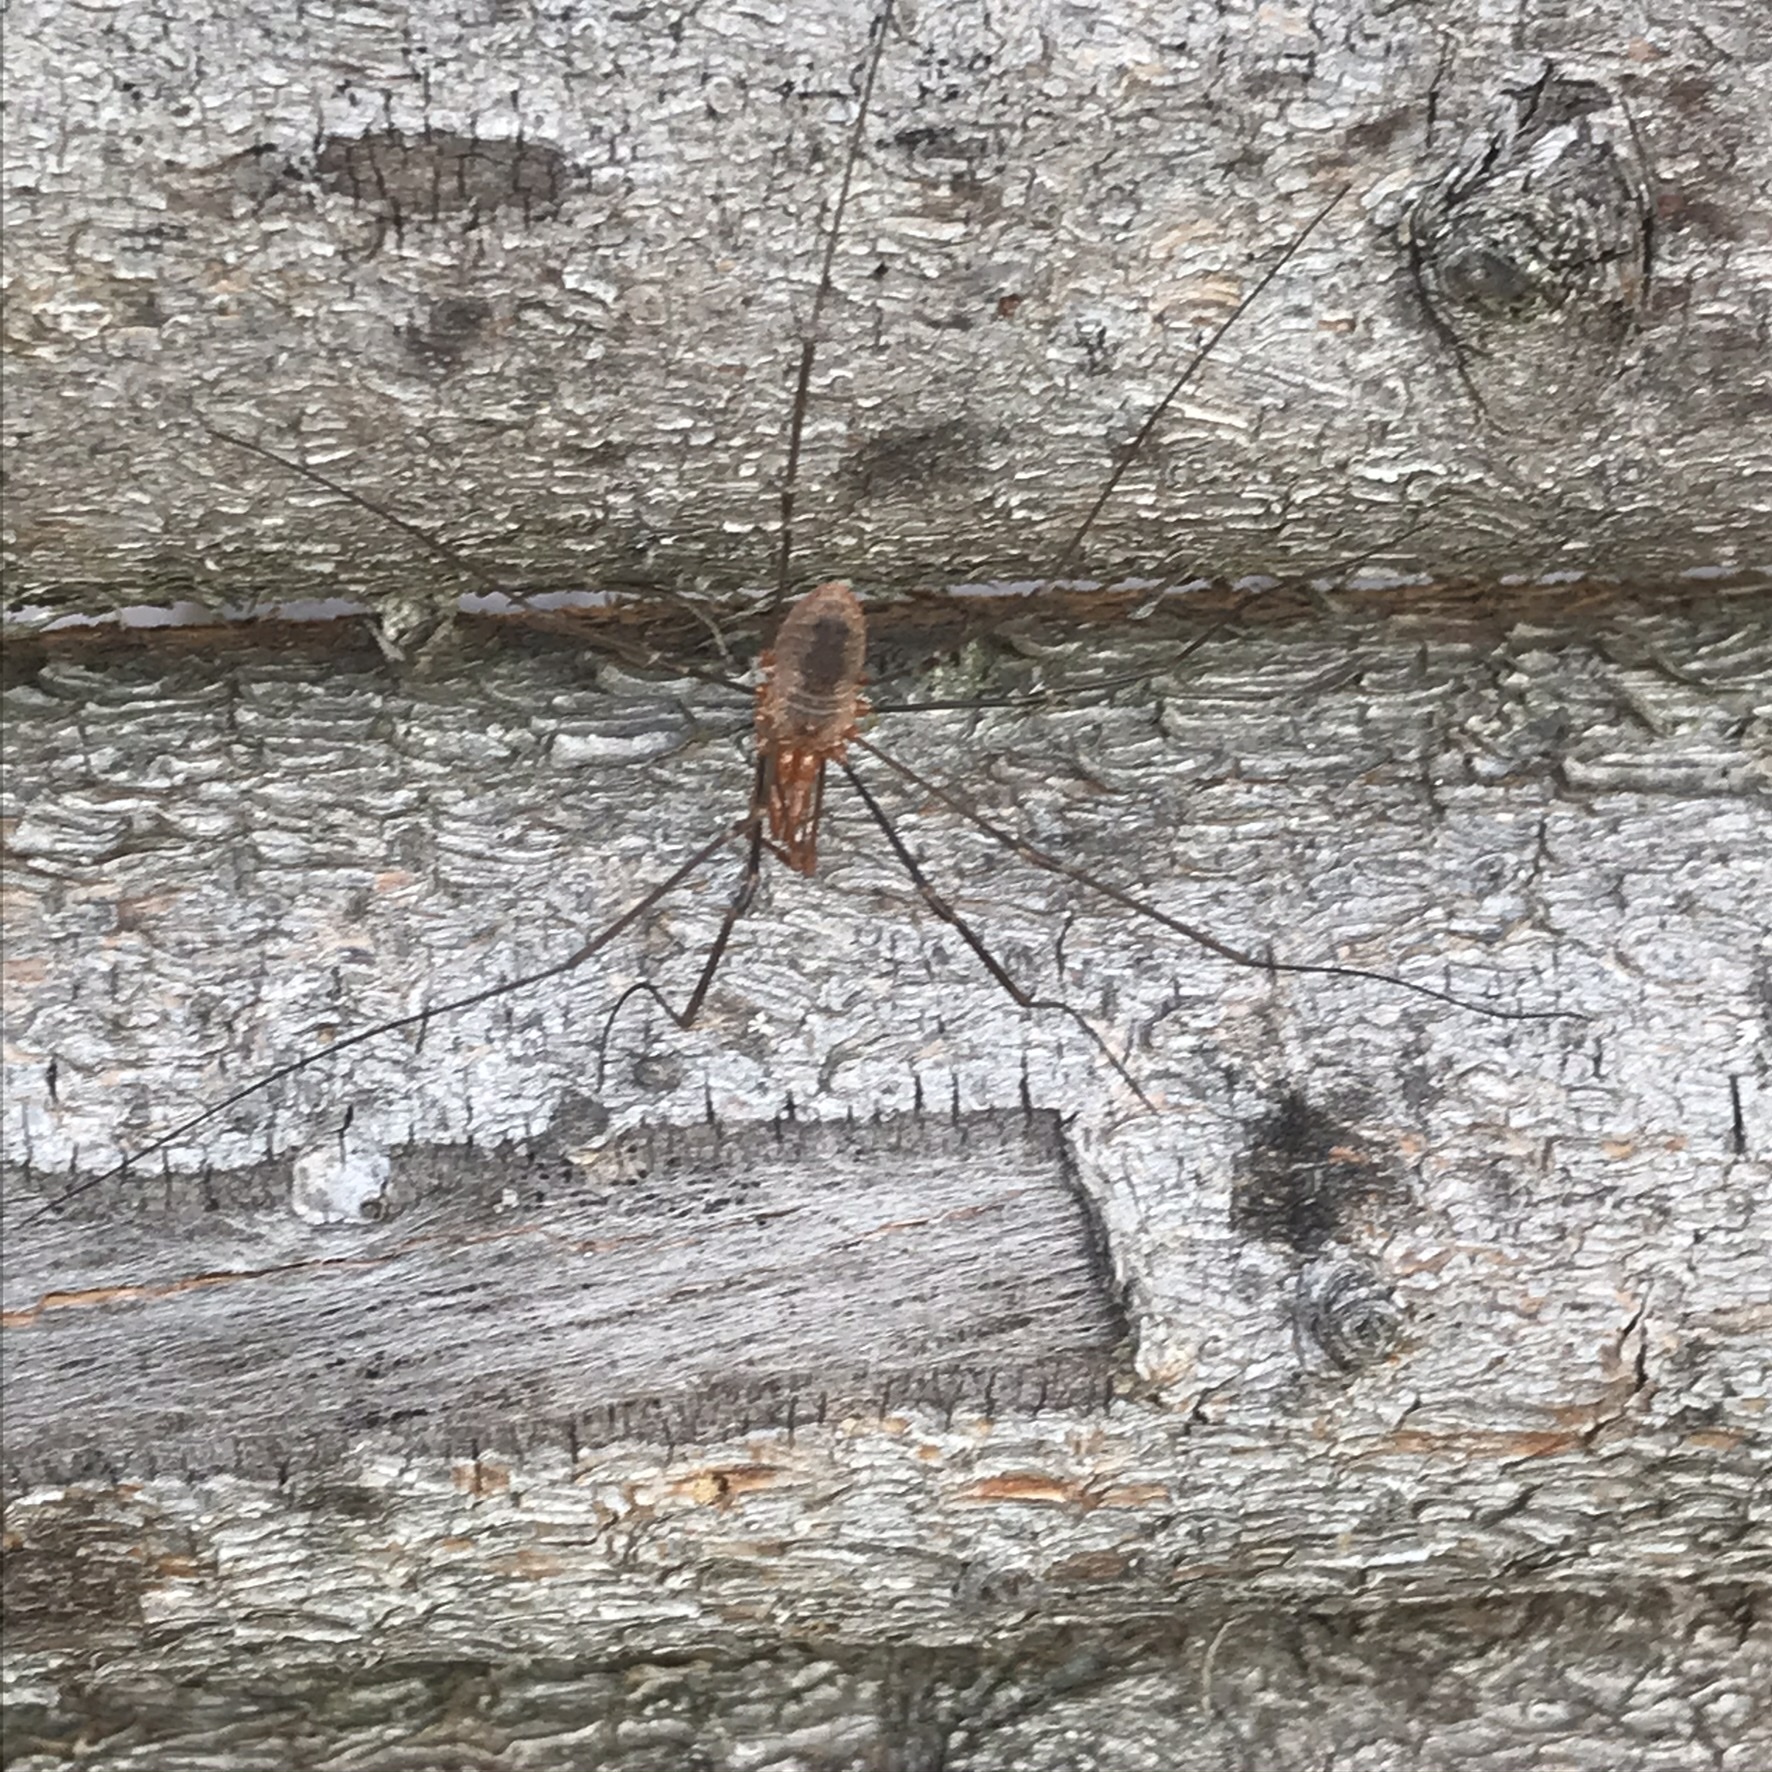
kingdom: Animalia
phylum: Arthropoda
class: Arachnida
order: Opiliones
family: Phalangiidae
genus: Phalangium
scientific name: Phalangium opilio
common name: Daddy longleg
